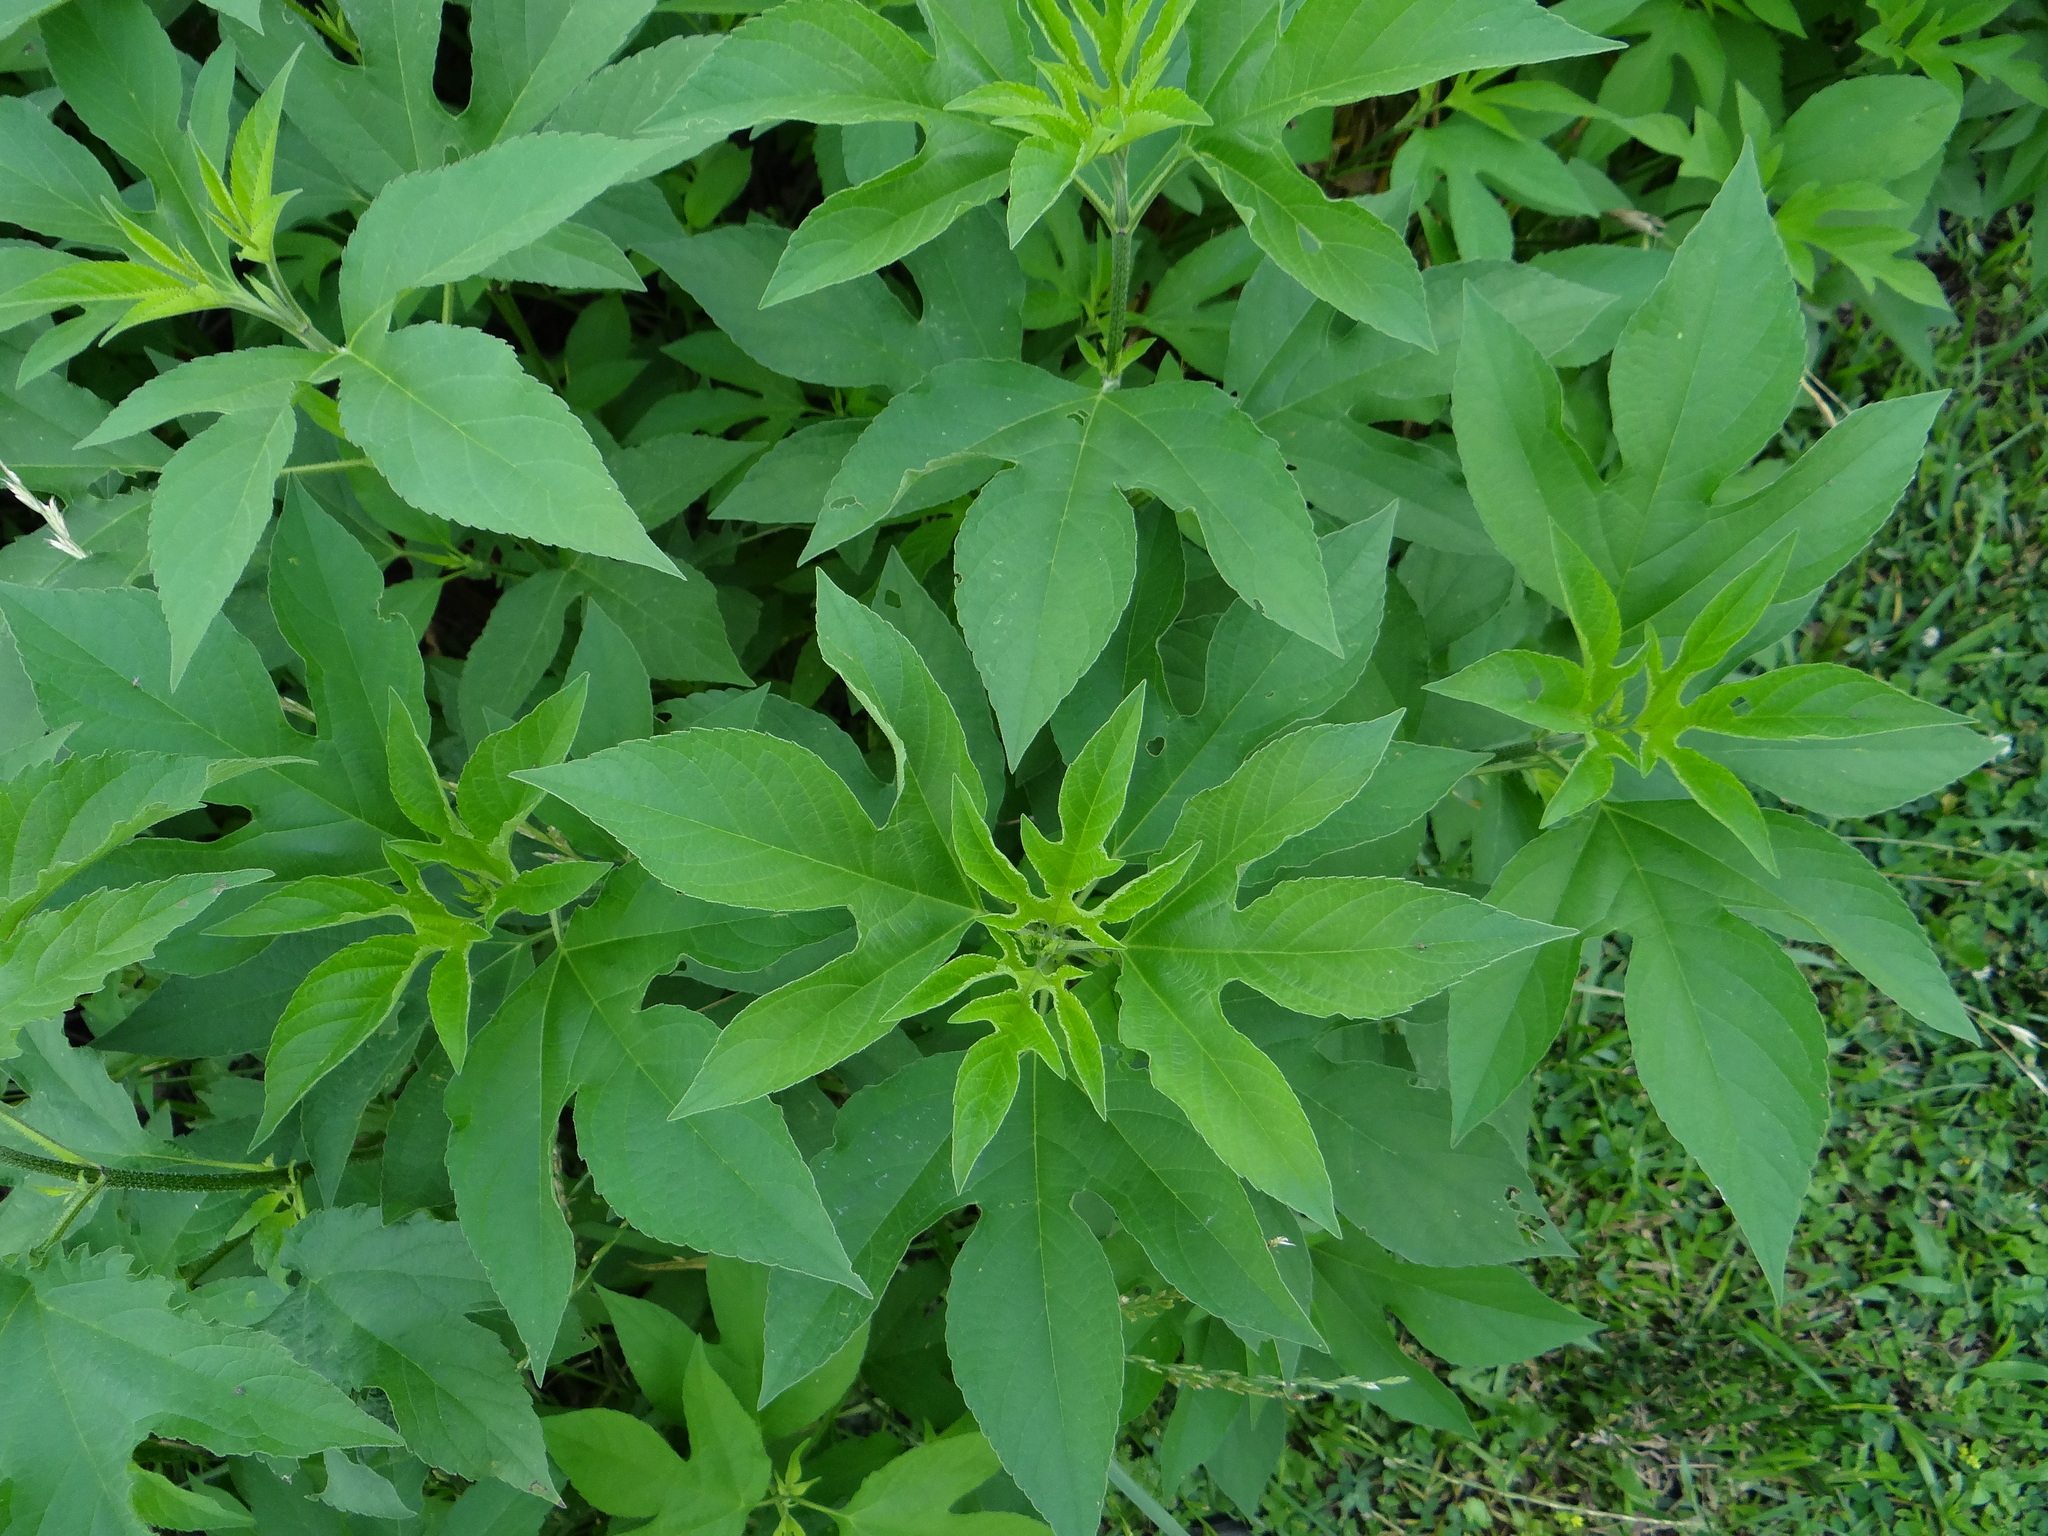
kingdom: Plantae
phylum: Tracheophyta
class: Magnoliopsida
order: Asterales
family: Asteraceae
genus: Ambrosia
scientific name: Ambrosia trifida
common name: Giant ragweed
